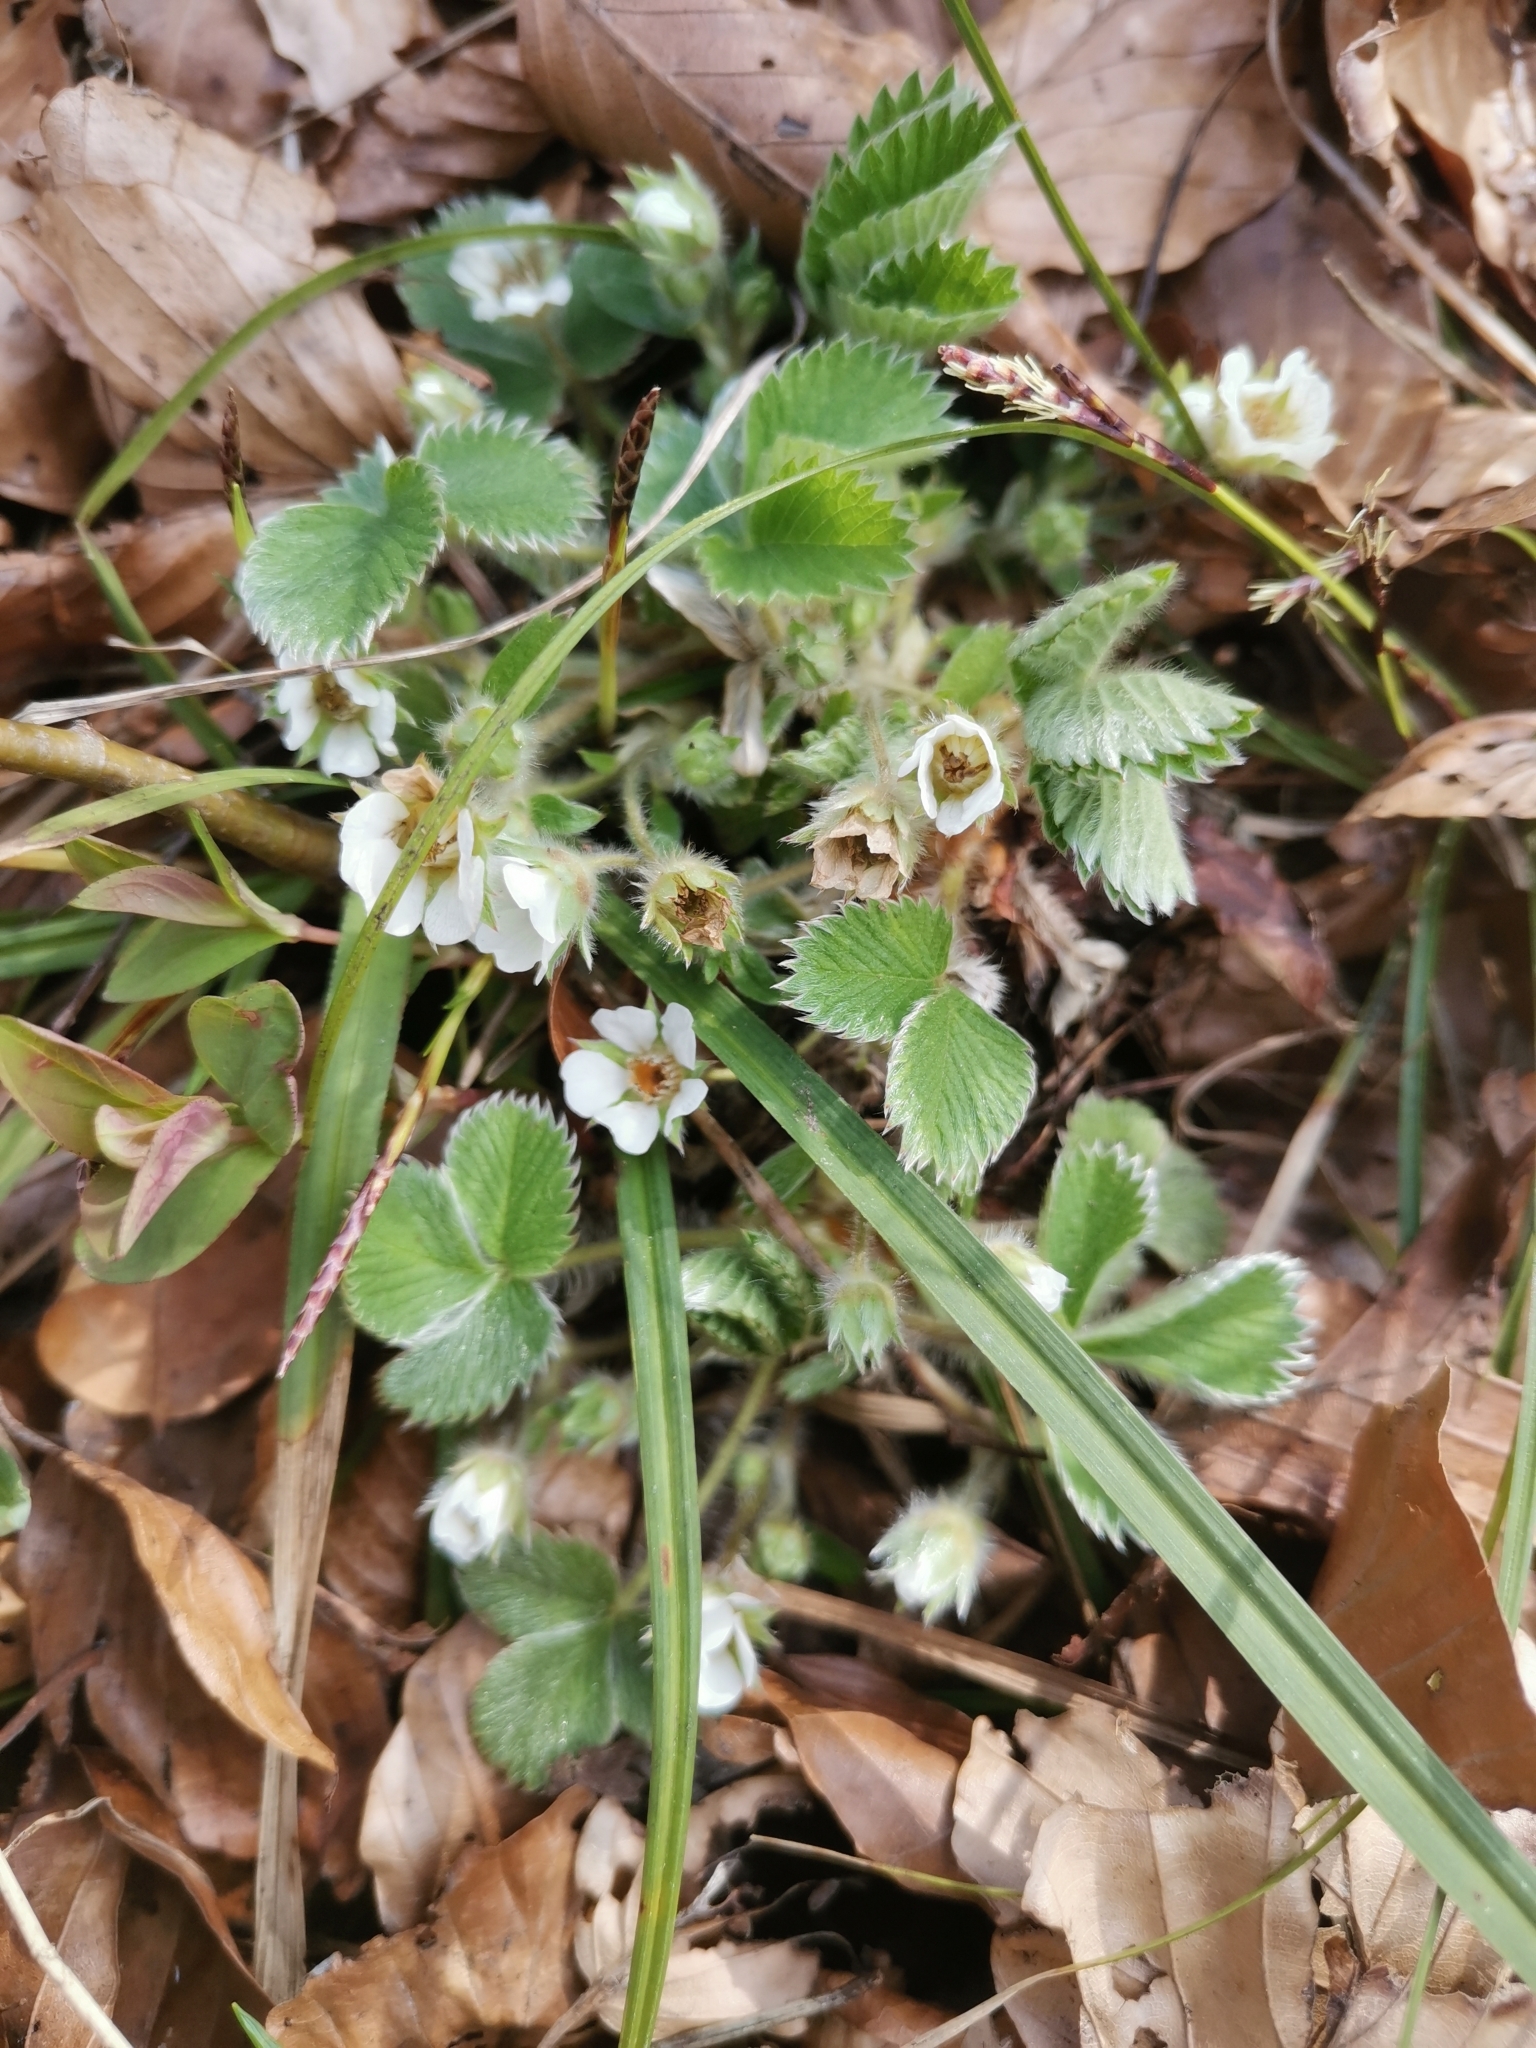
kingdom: Plantae
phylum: Tracheophyta
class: Magnoliopsida
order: Rosales
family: Rosaceae
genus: Potentilla
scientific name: Potentilla carniolica
